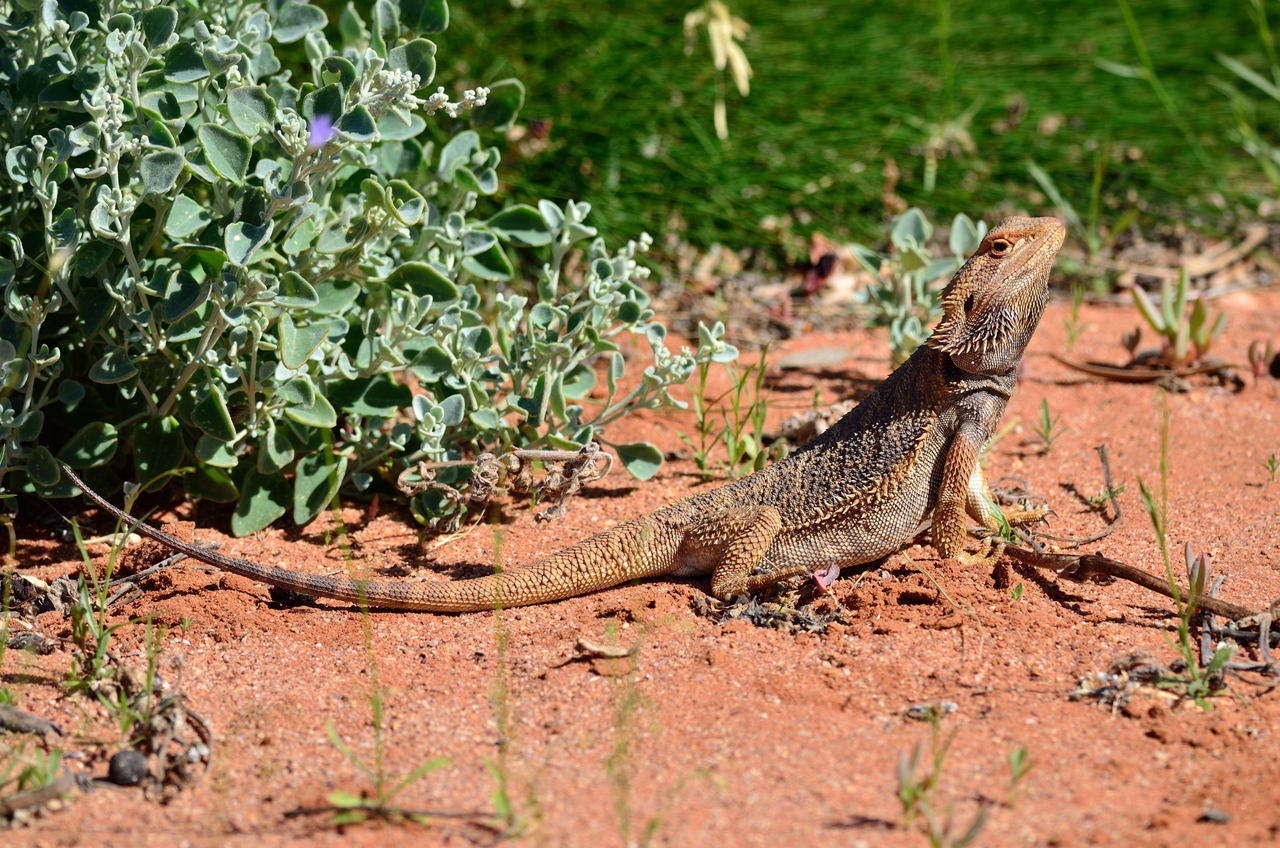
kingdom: Animalia
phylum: Chordata
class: Squamata
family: Agamidae
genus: Pogona
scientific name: Pogona vitticeps
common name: Central bearded dragon
